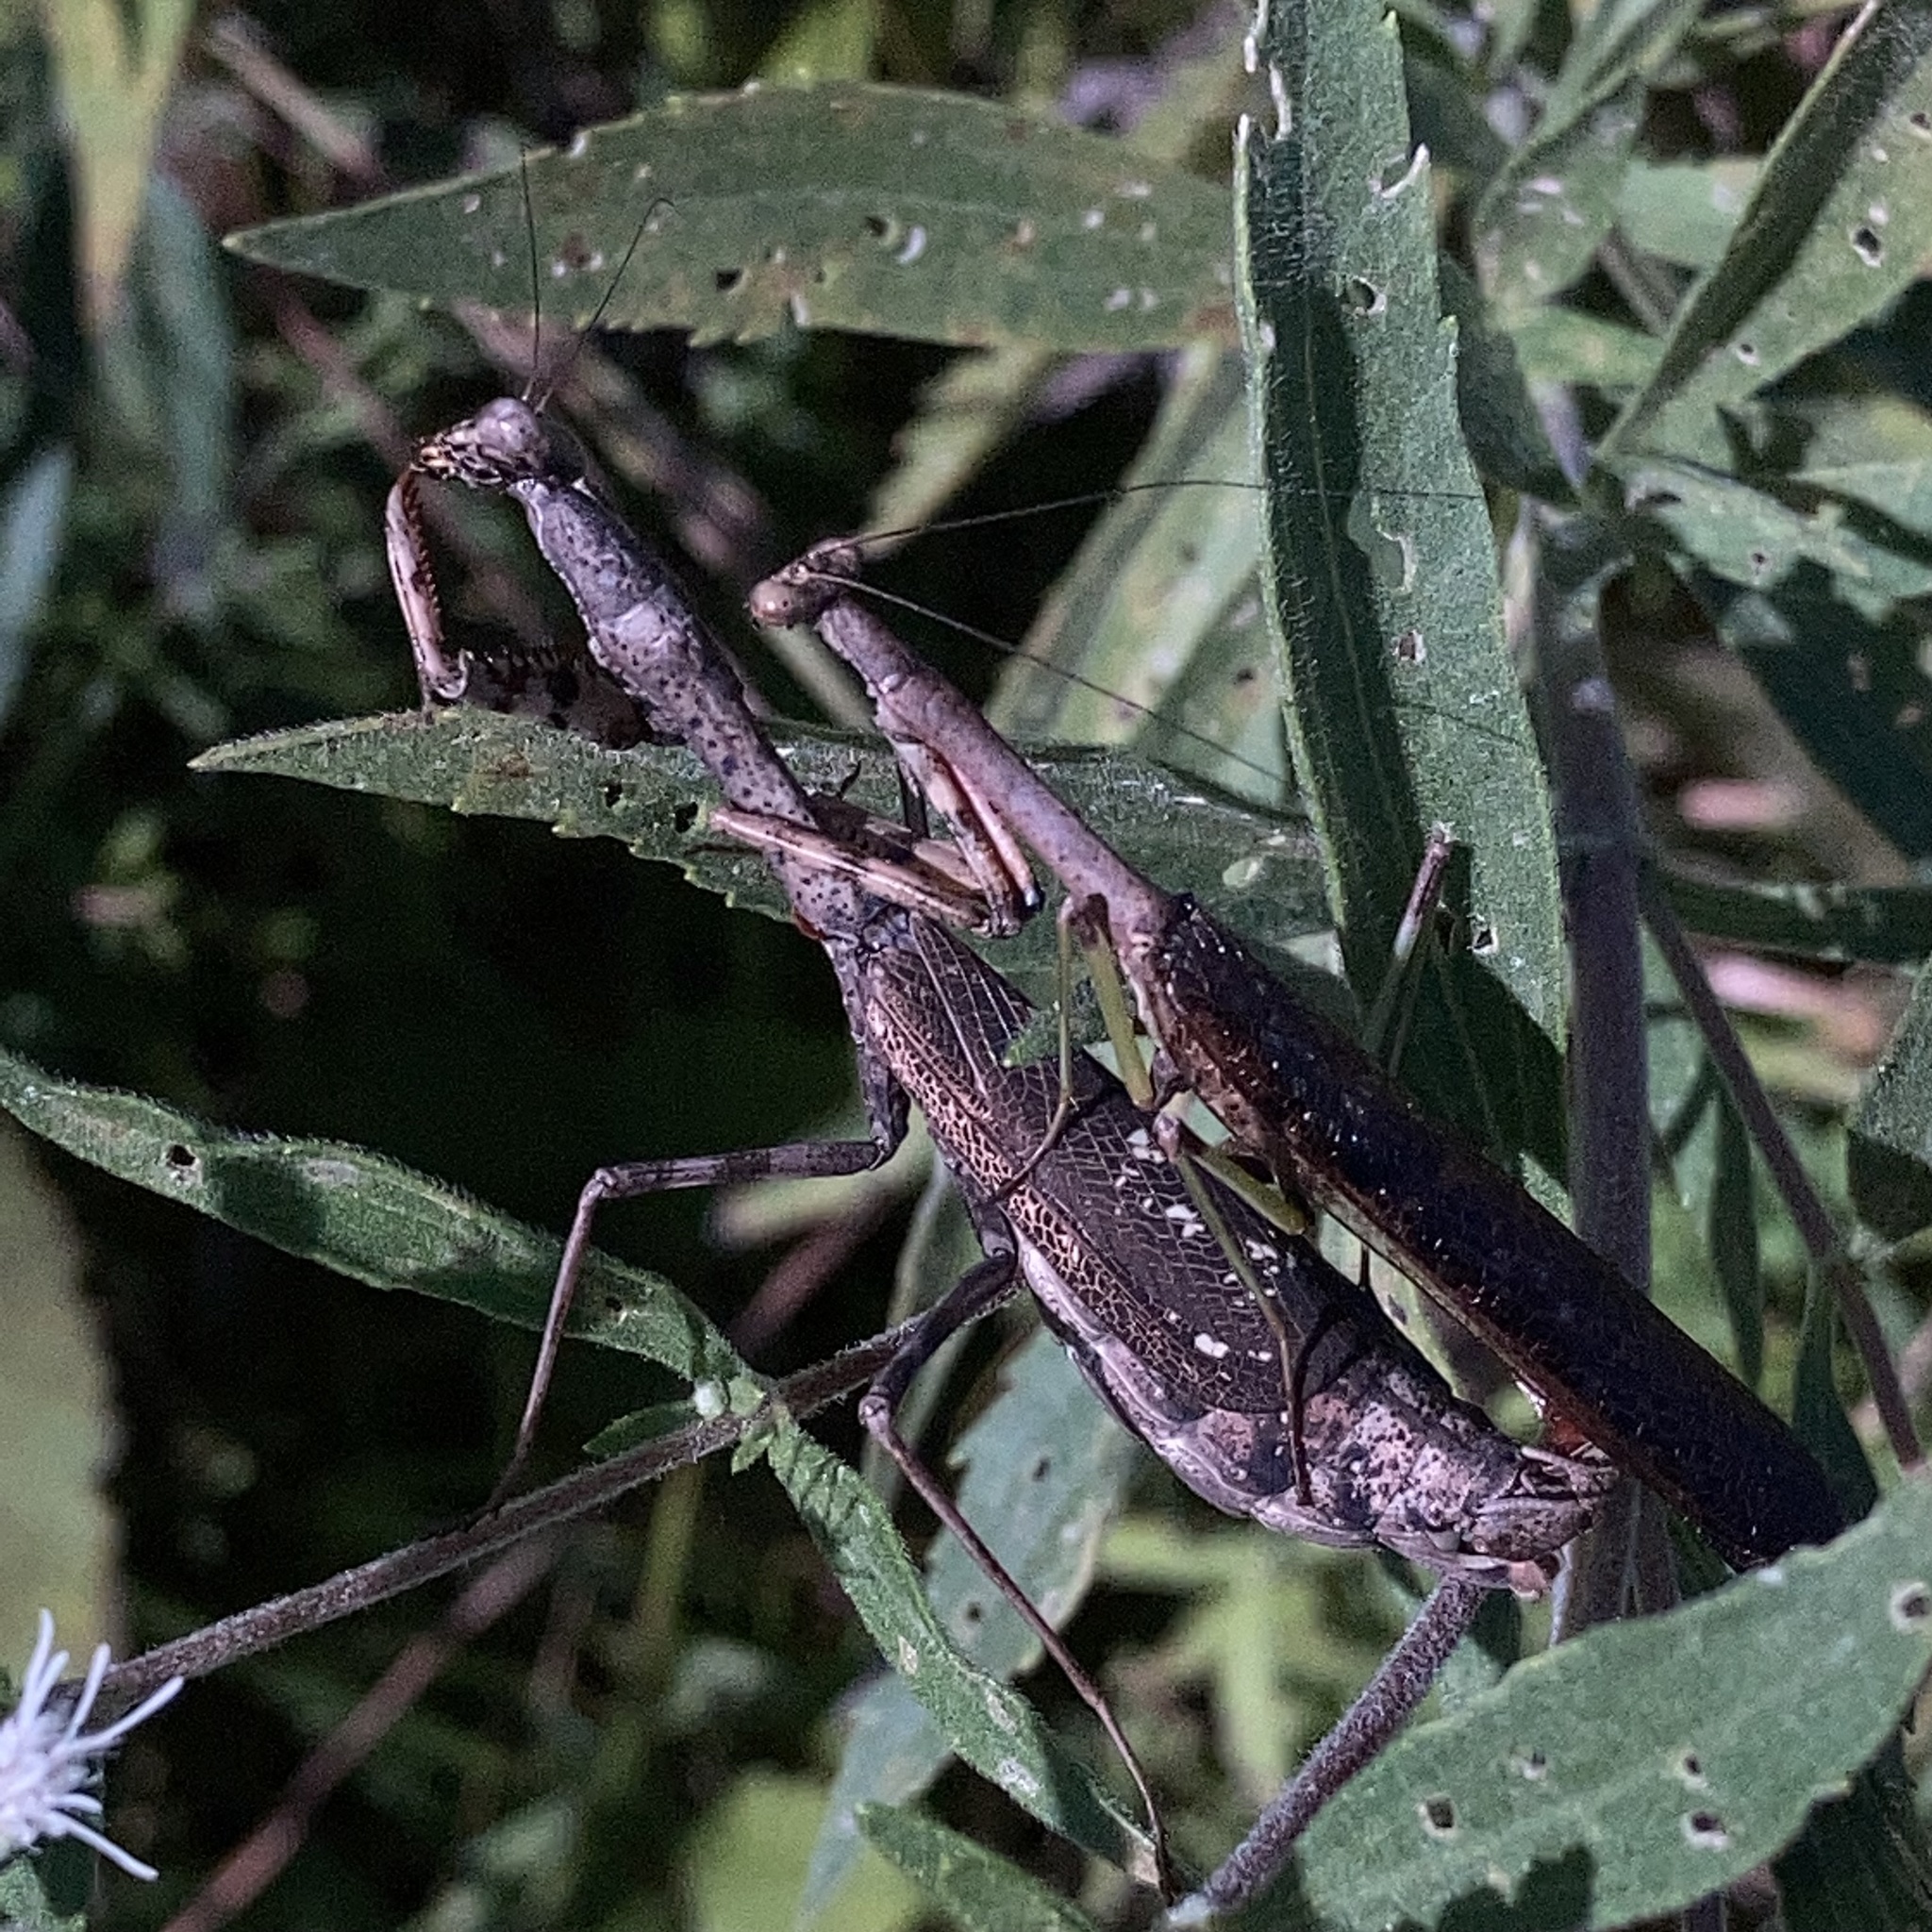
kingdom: Animalia
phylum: Arthropoda
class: Insecta
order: Mantodea
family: Mantidae
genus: Stagmomantis
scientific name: Stagmomantis carolina
